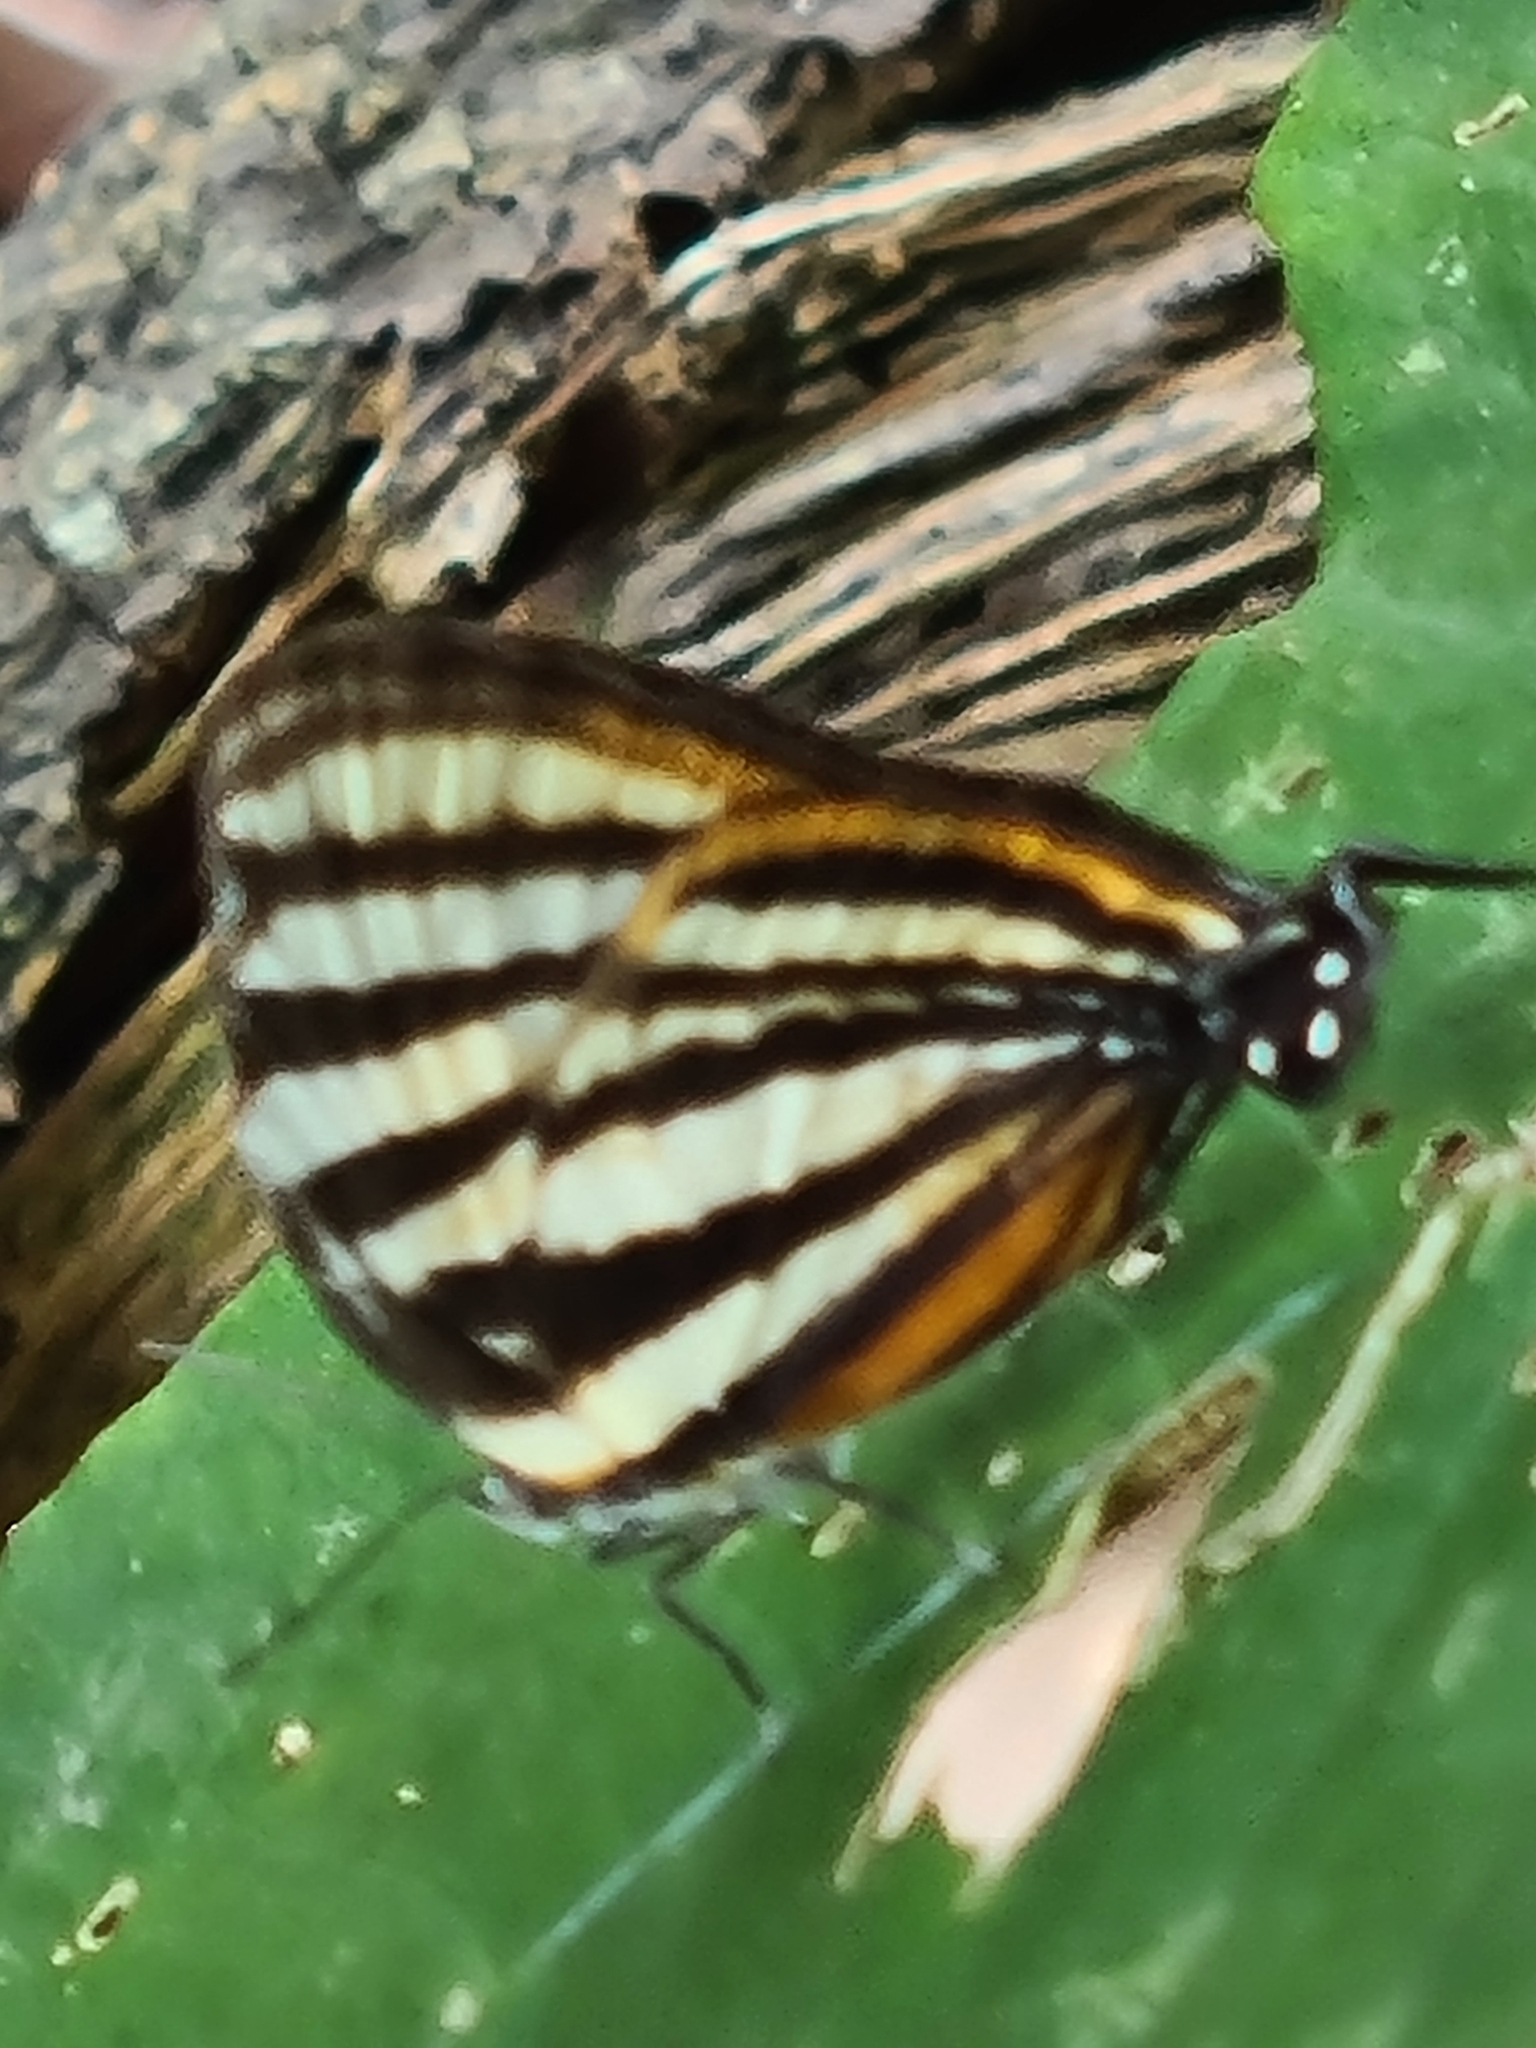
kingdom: Animalia
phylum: Arthropoda
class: Insecta
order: Lepidoptera
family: Lycaenidae
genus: Thecla
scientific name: Thecla aetolus
